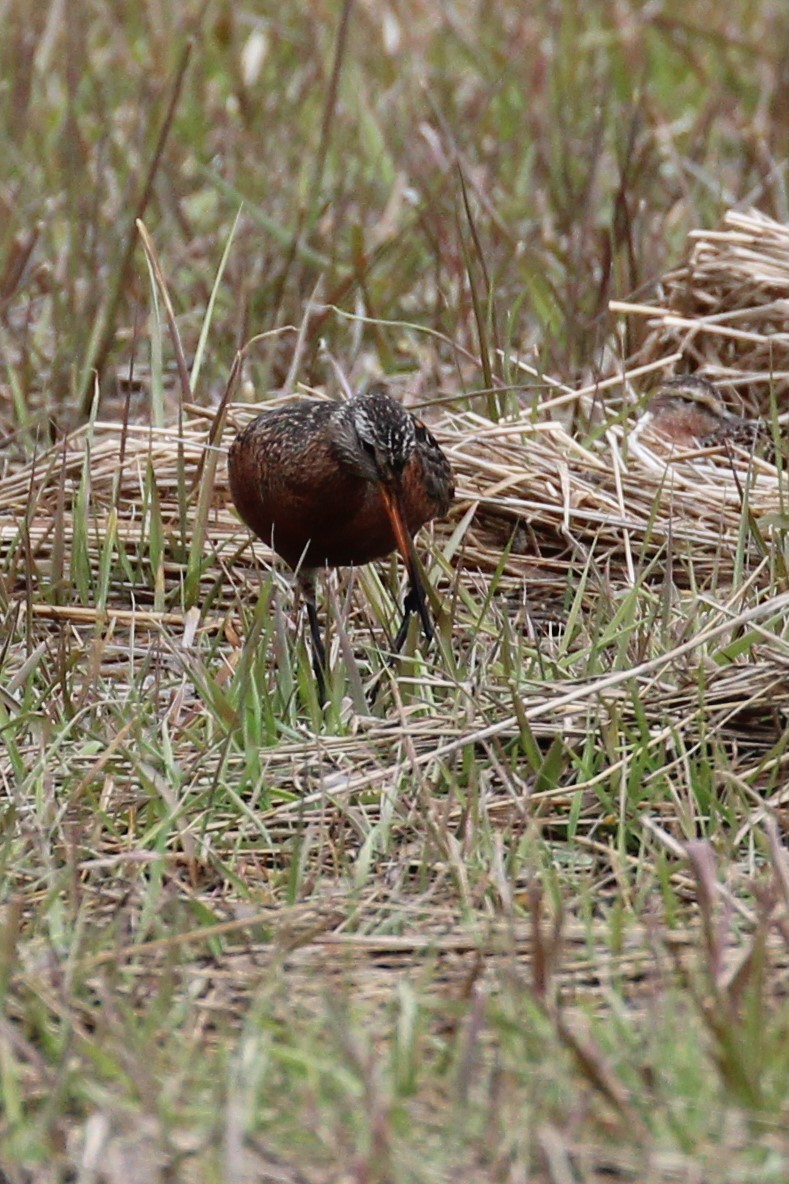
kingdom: Animalia
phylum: Chordata
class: Aves
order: Charadriiformes
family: Scolopacidae
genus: Limosa
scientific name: Limosa haemastica
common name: Hudsonian godwit
